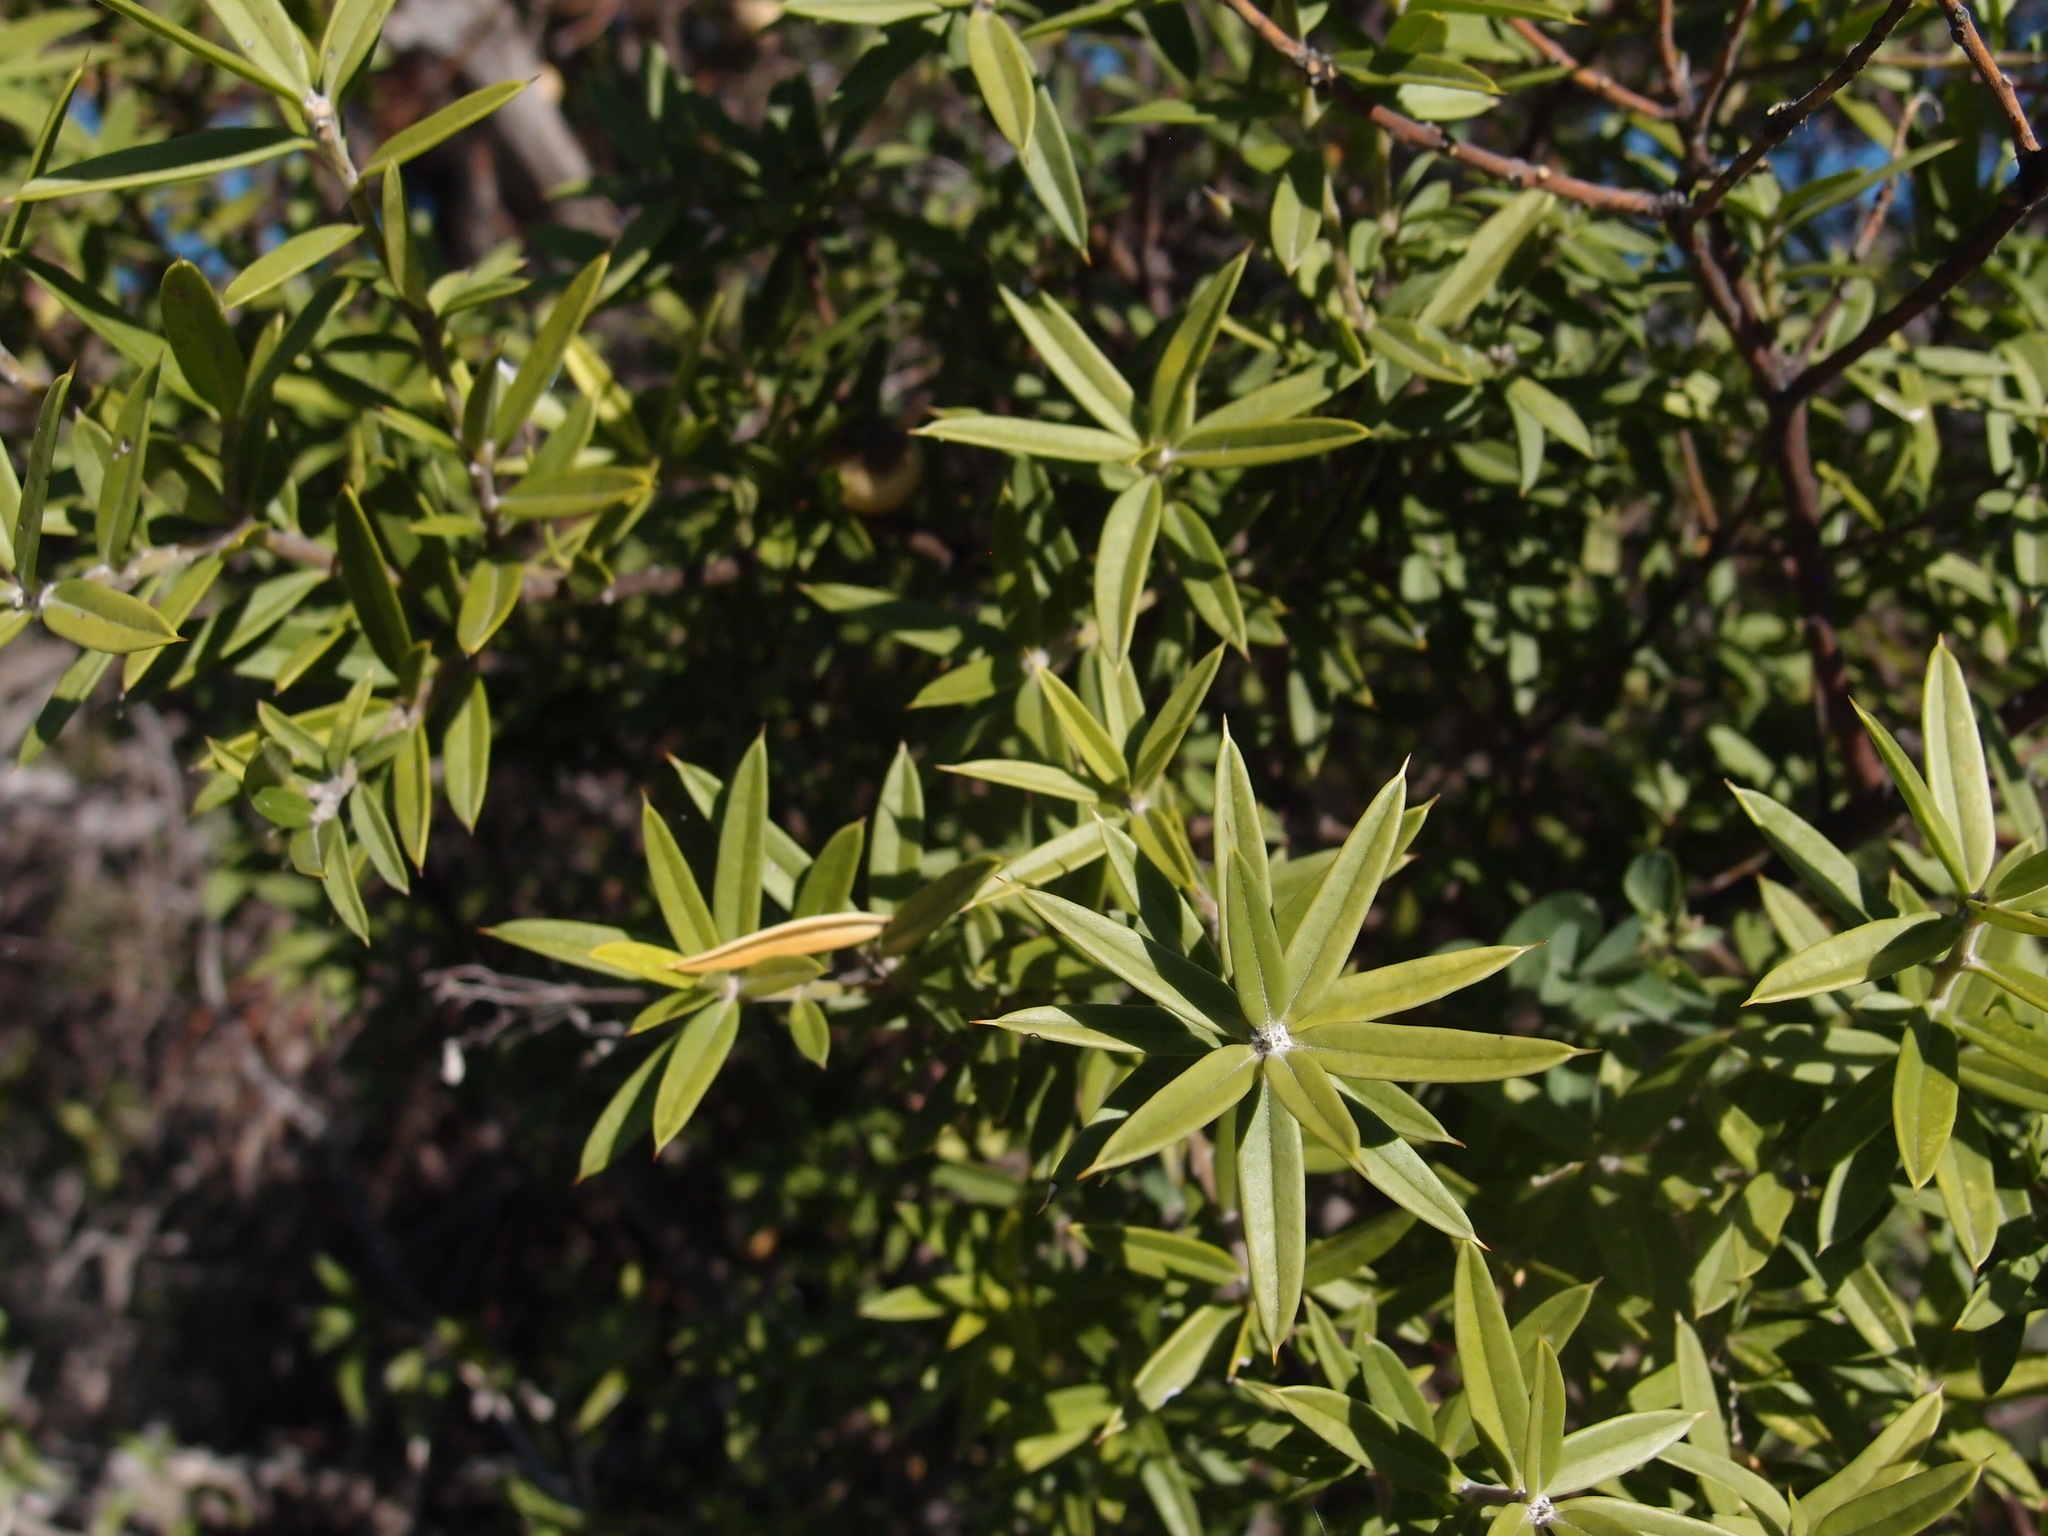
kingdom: Plantae
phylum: Tracheophyta
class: Magnoliopsida
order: Ericales
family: Primulaceae
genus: Bonellia
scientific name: Bonellia macrocarpa
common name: Primrose
